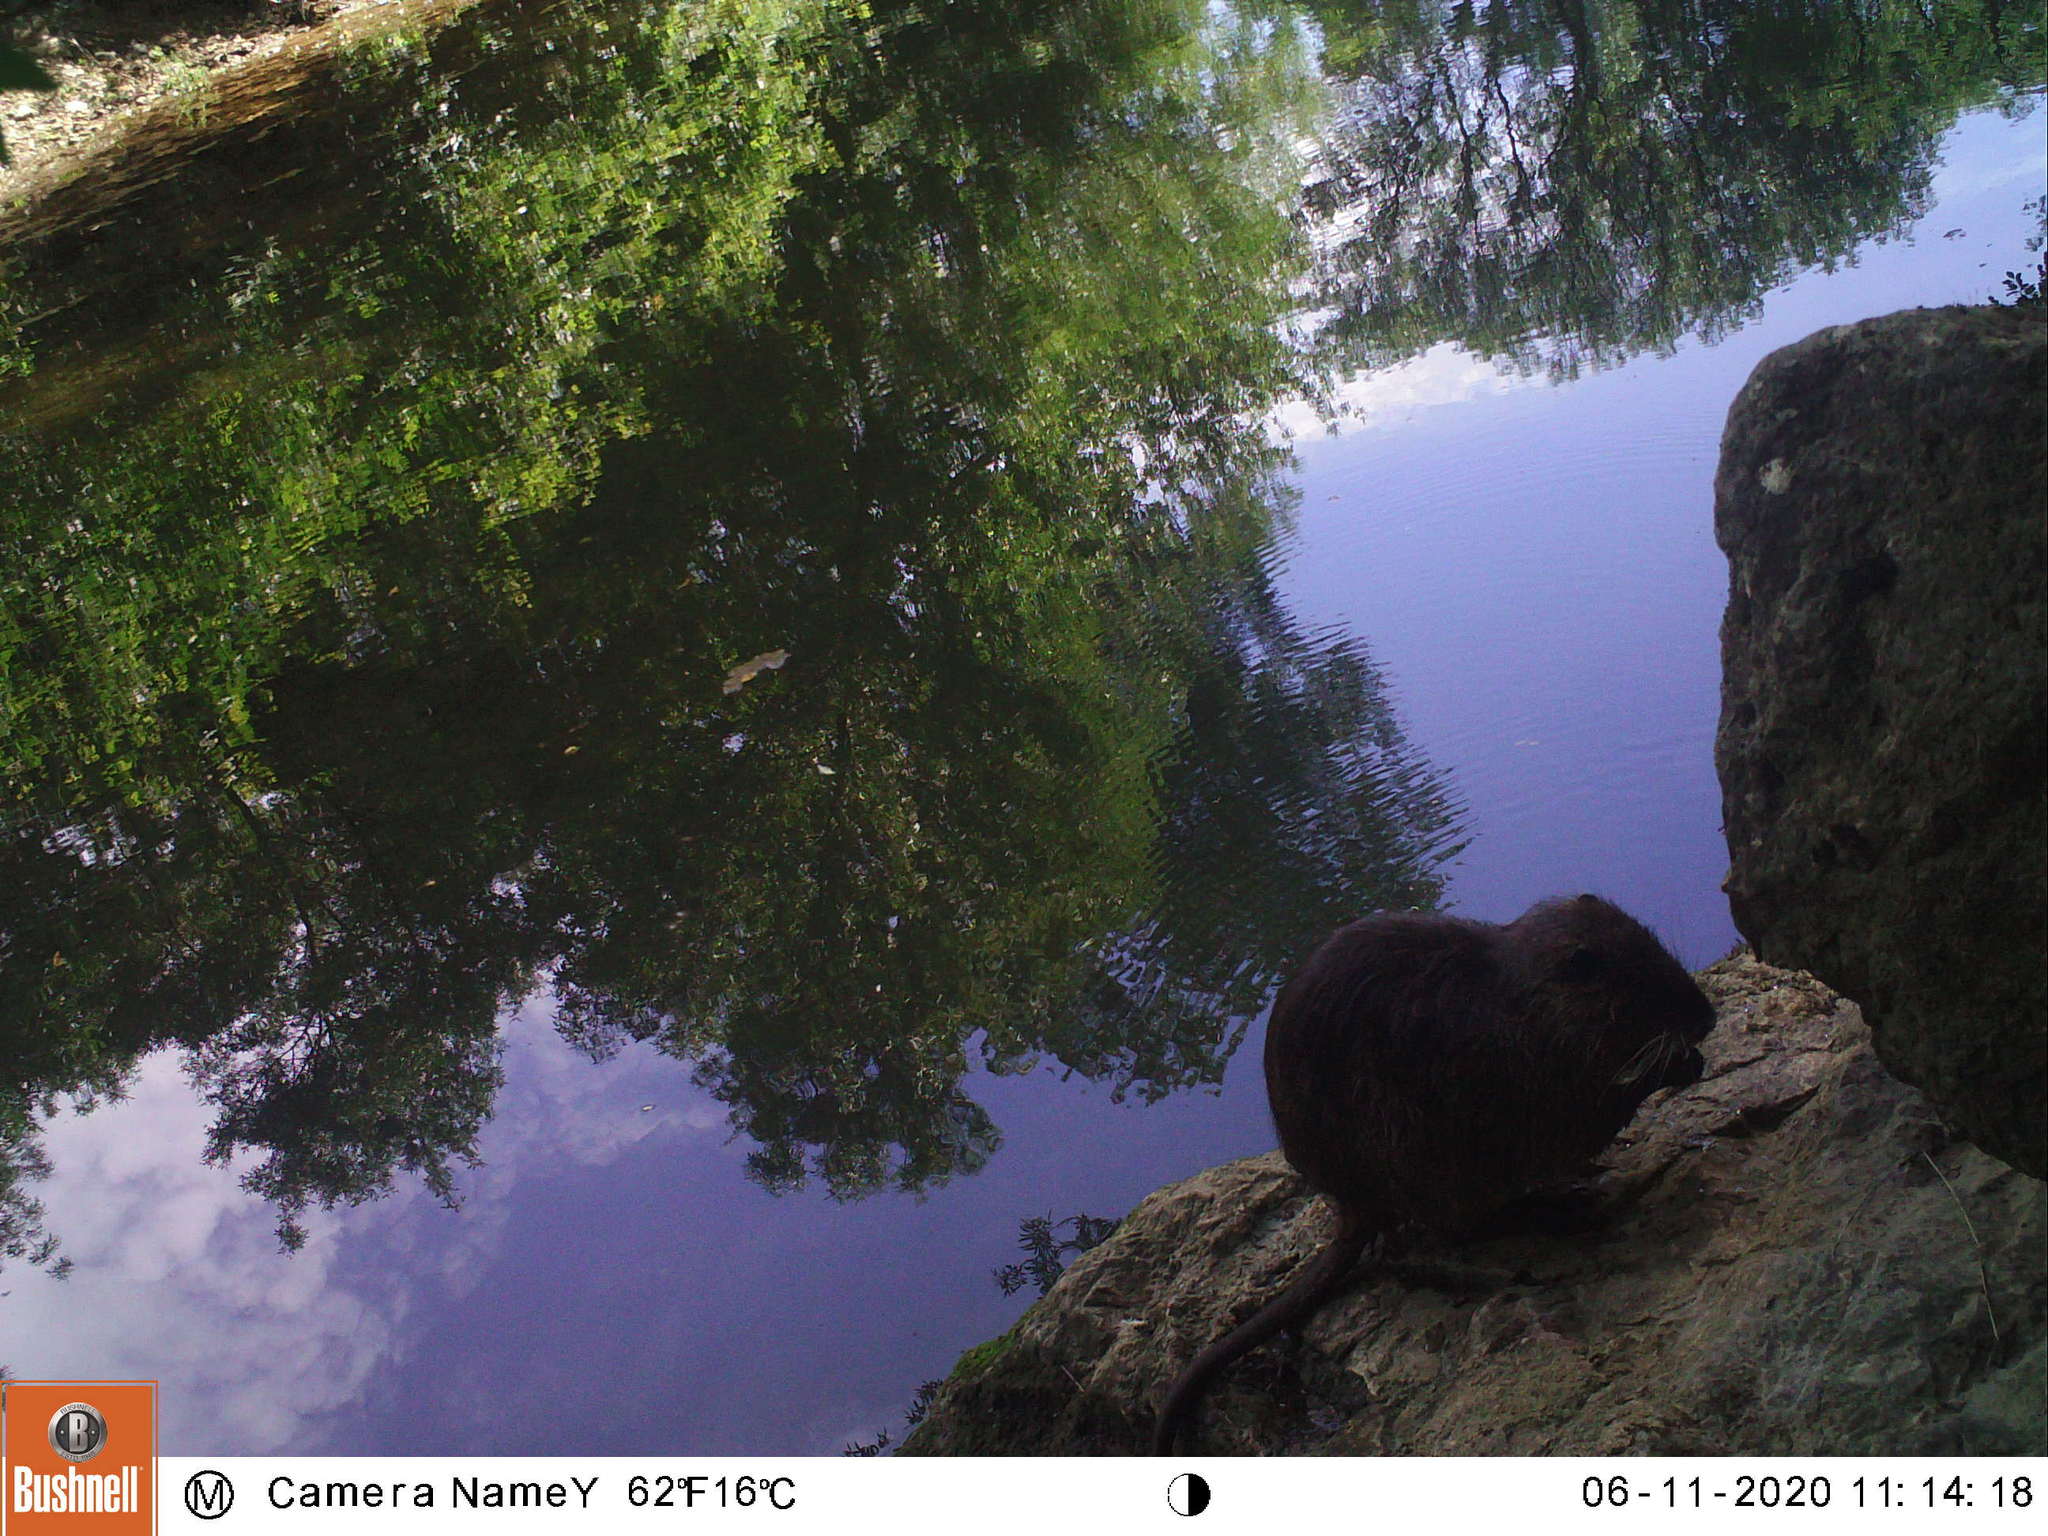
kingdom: Animalia
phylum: Chordata
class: Mammalia
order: Rodentia
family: Myocastoridae
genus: Myocastor
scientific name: Myocastor coypus
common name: Coypu
